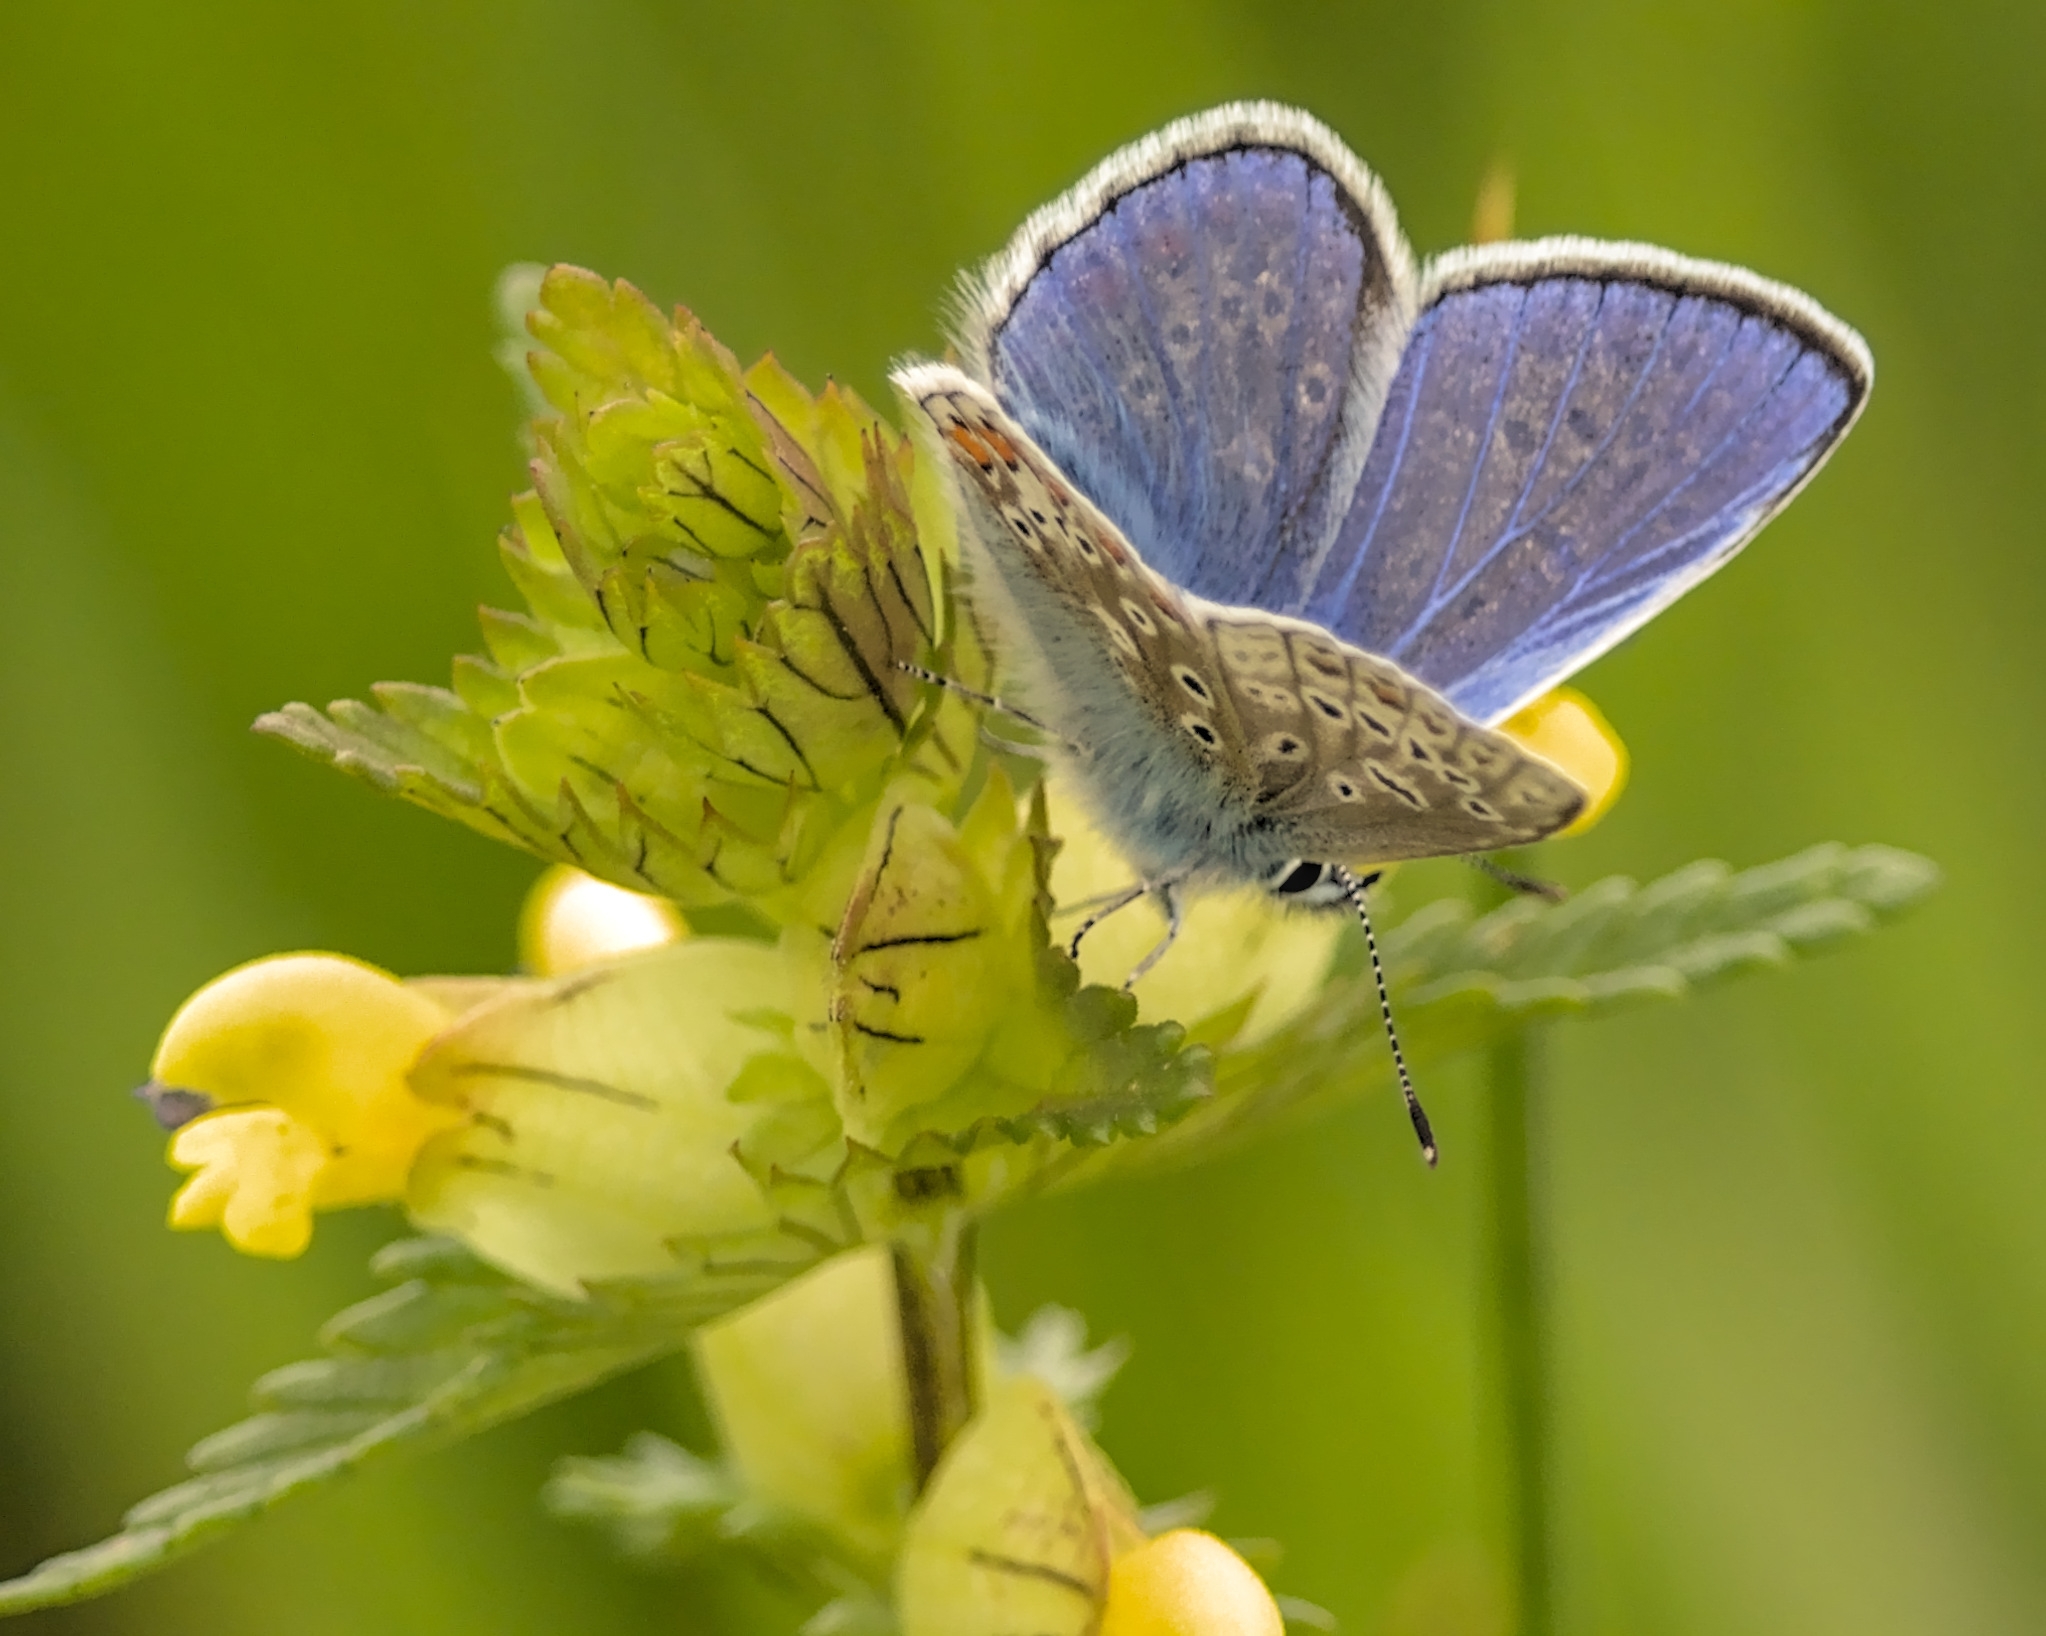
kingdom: Animalia
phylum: Arthropoda
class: Insecta
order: Lepidoptera
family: Lycaenidae
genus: Polyommatus
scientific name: Polyommatus icarus
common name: Common blue
